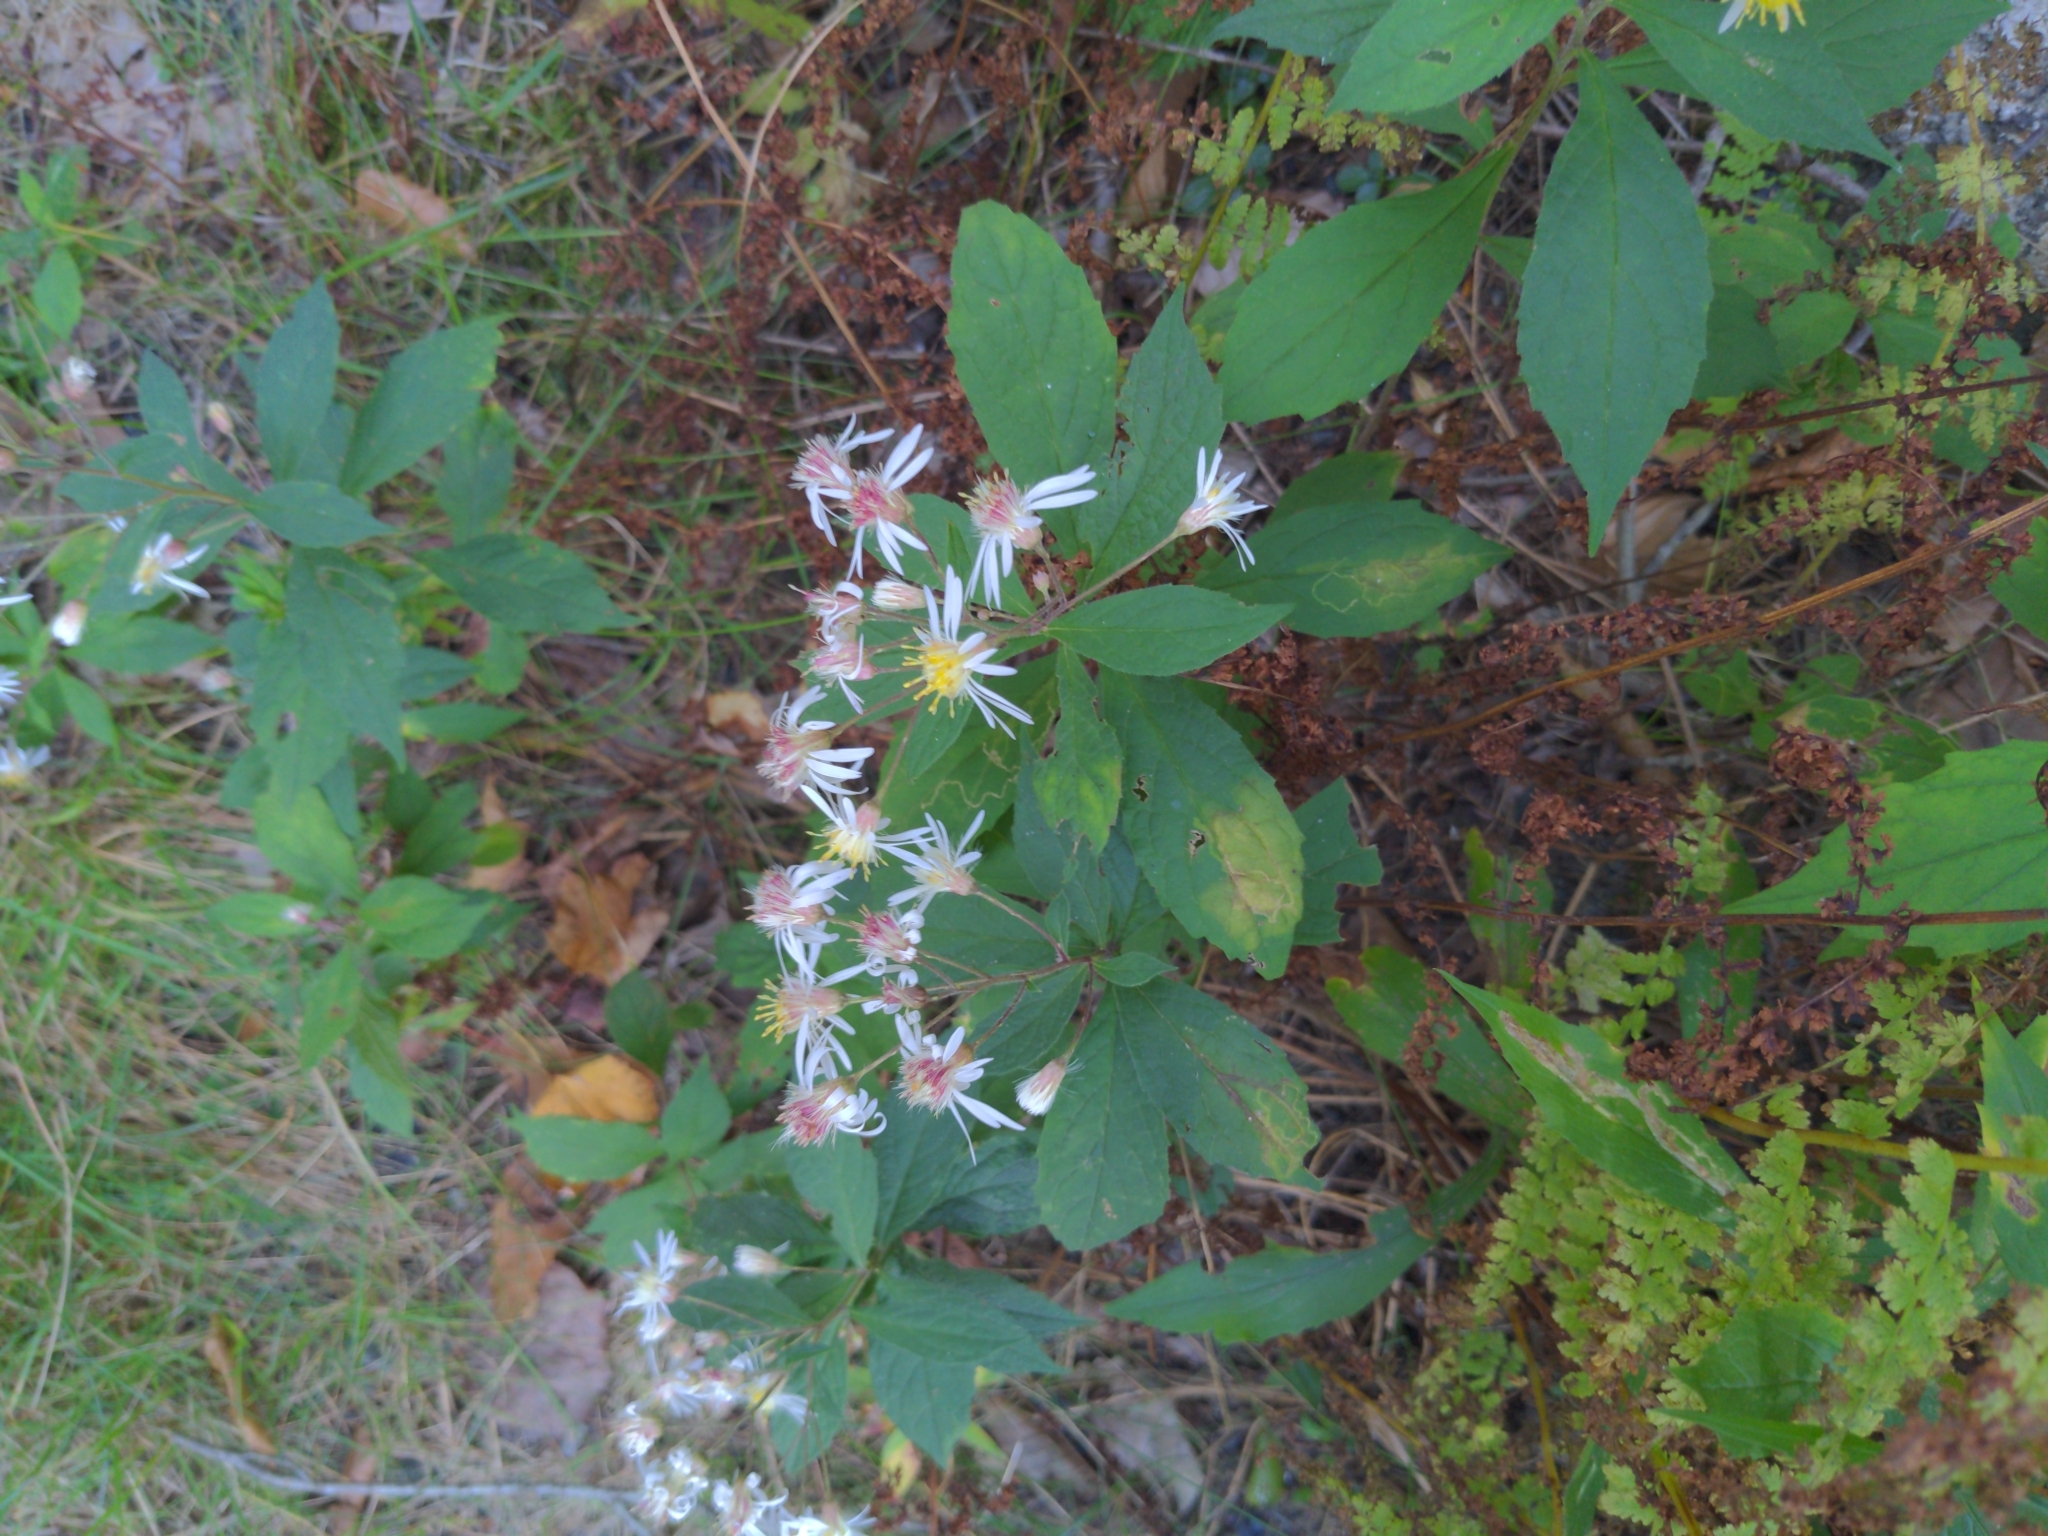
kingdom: Plantae
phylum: Tracheophyta
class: Magnoliopsida
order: Asterales
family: Asteraceae
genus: Oclemena
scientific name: Oclemena acuminata
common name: Mountain aster
